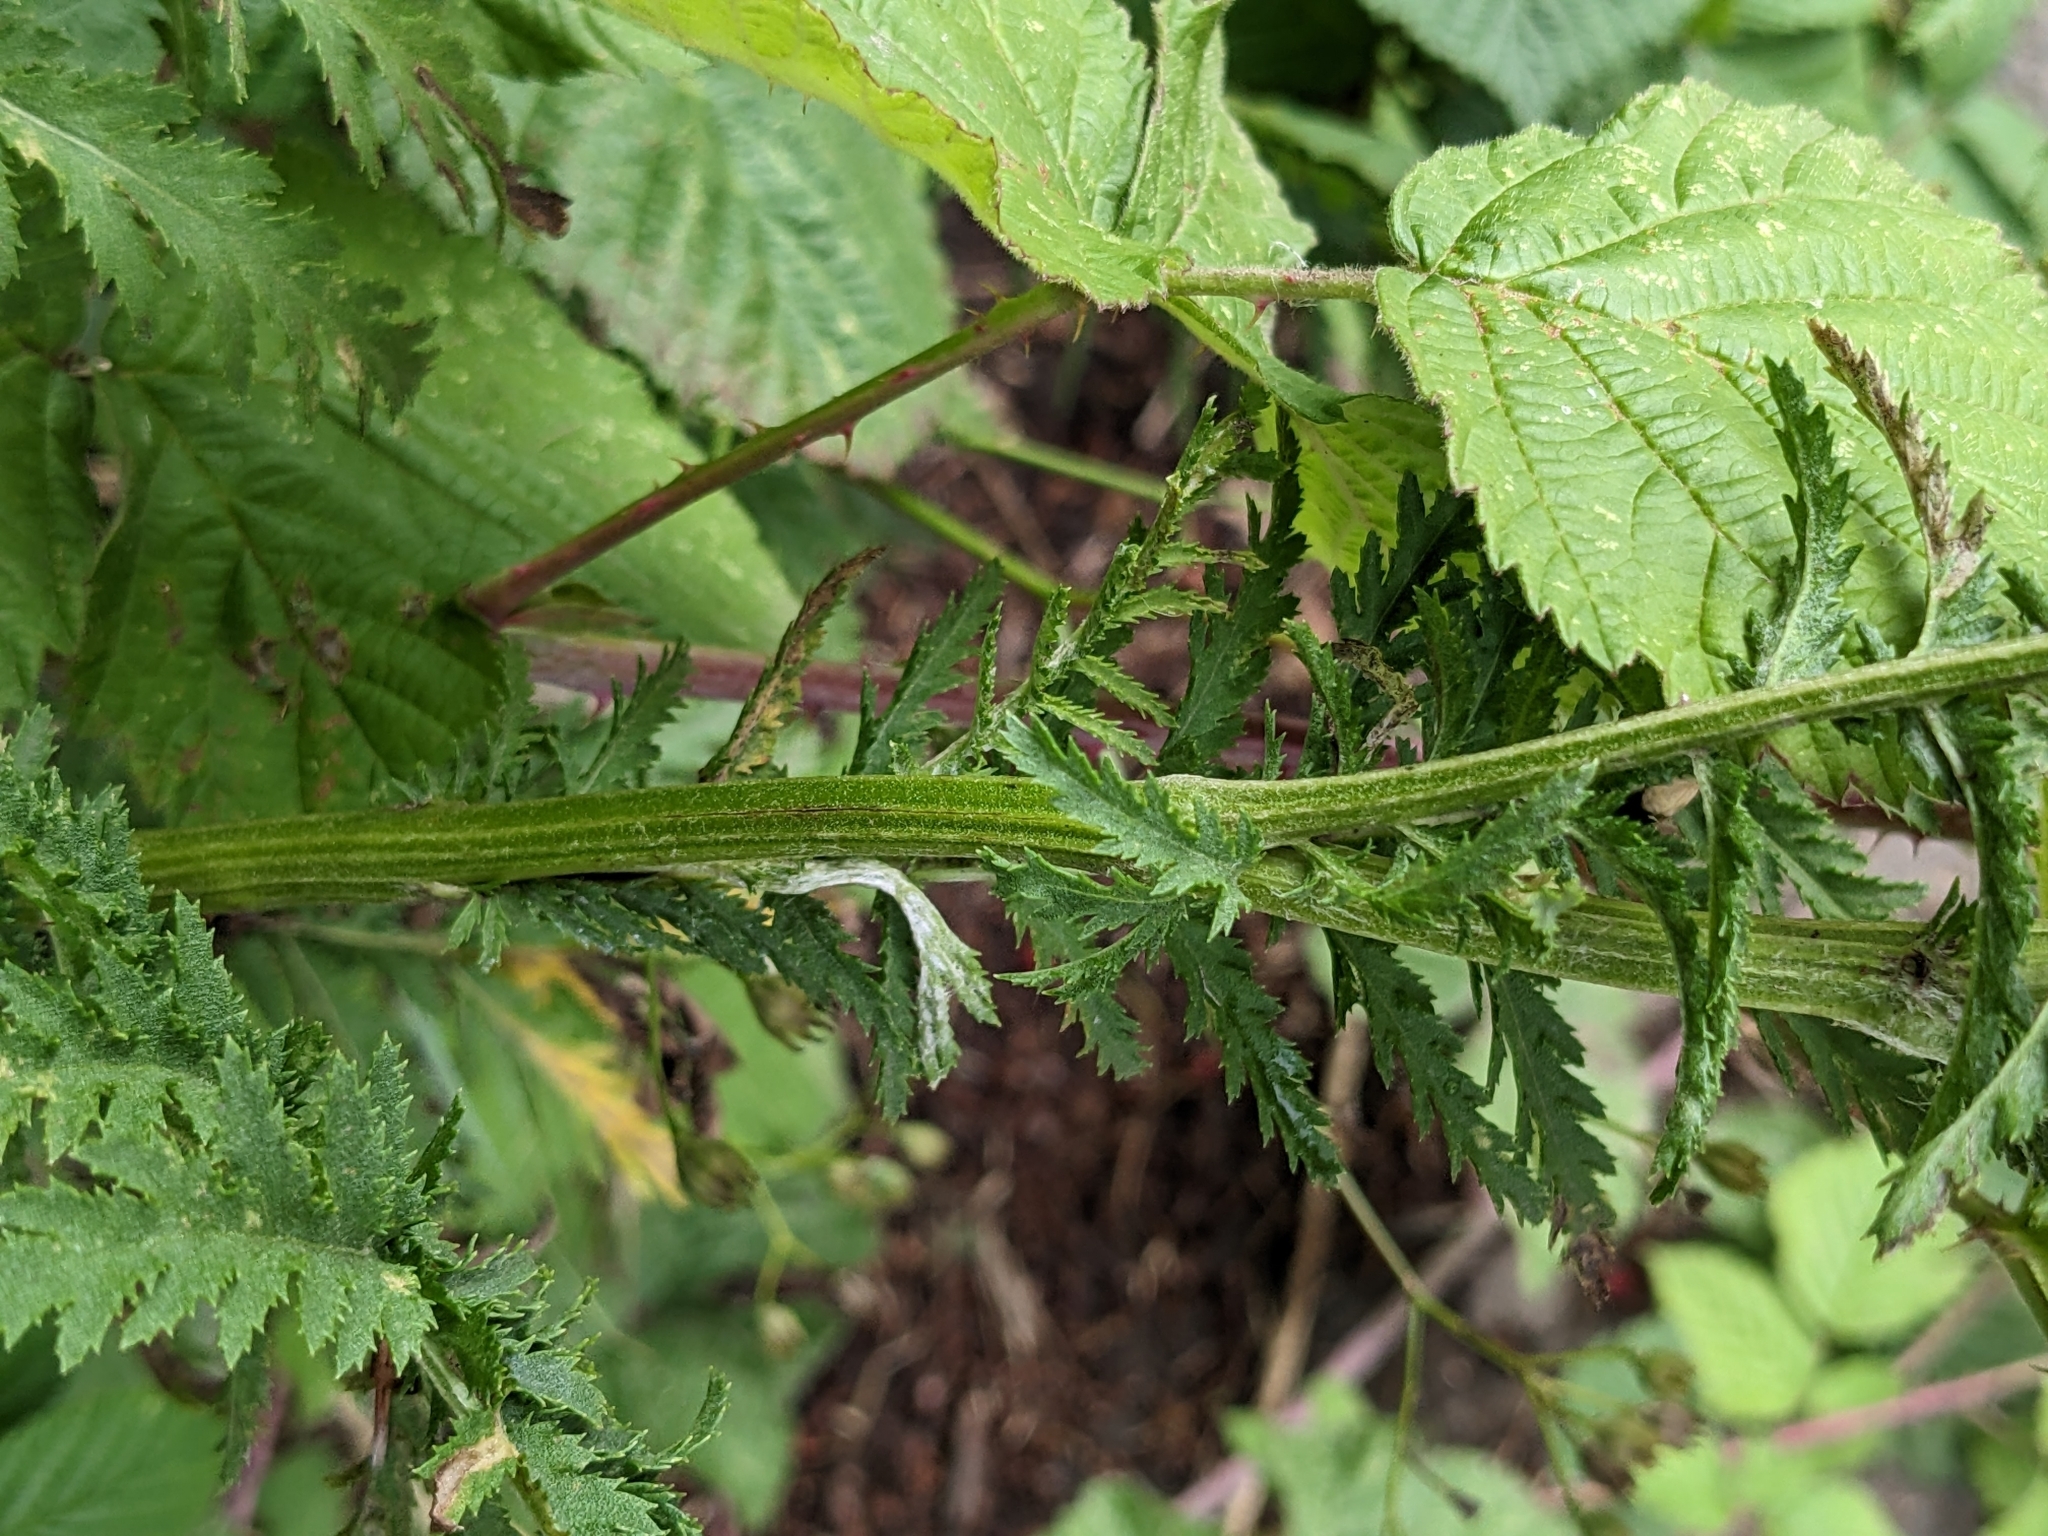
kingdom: Plantae
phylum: Tracheophyta
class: Magnoliopsida
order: Asterales
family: Asteraceae
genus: Tanacetum
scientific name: Tanacetum vulgare
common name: Common tansy
